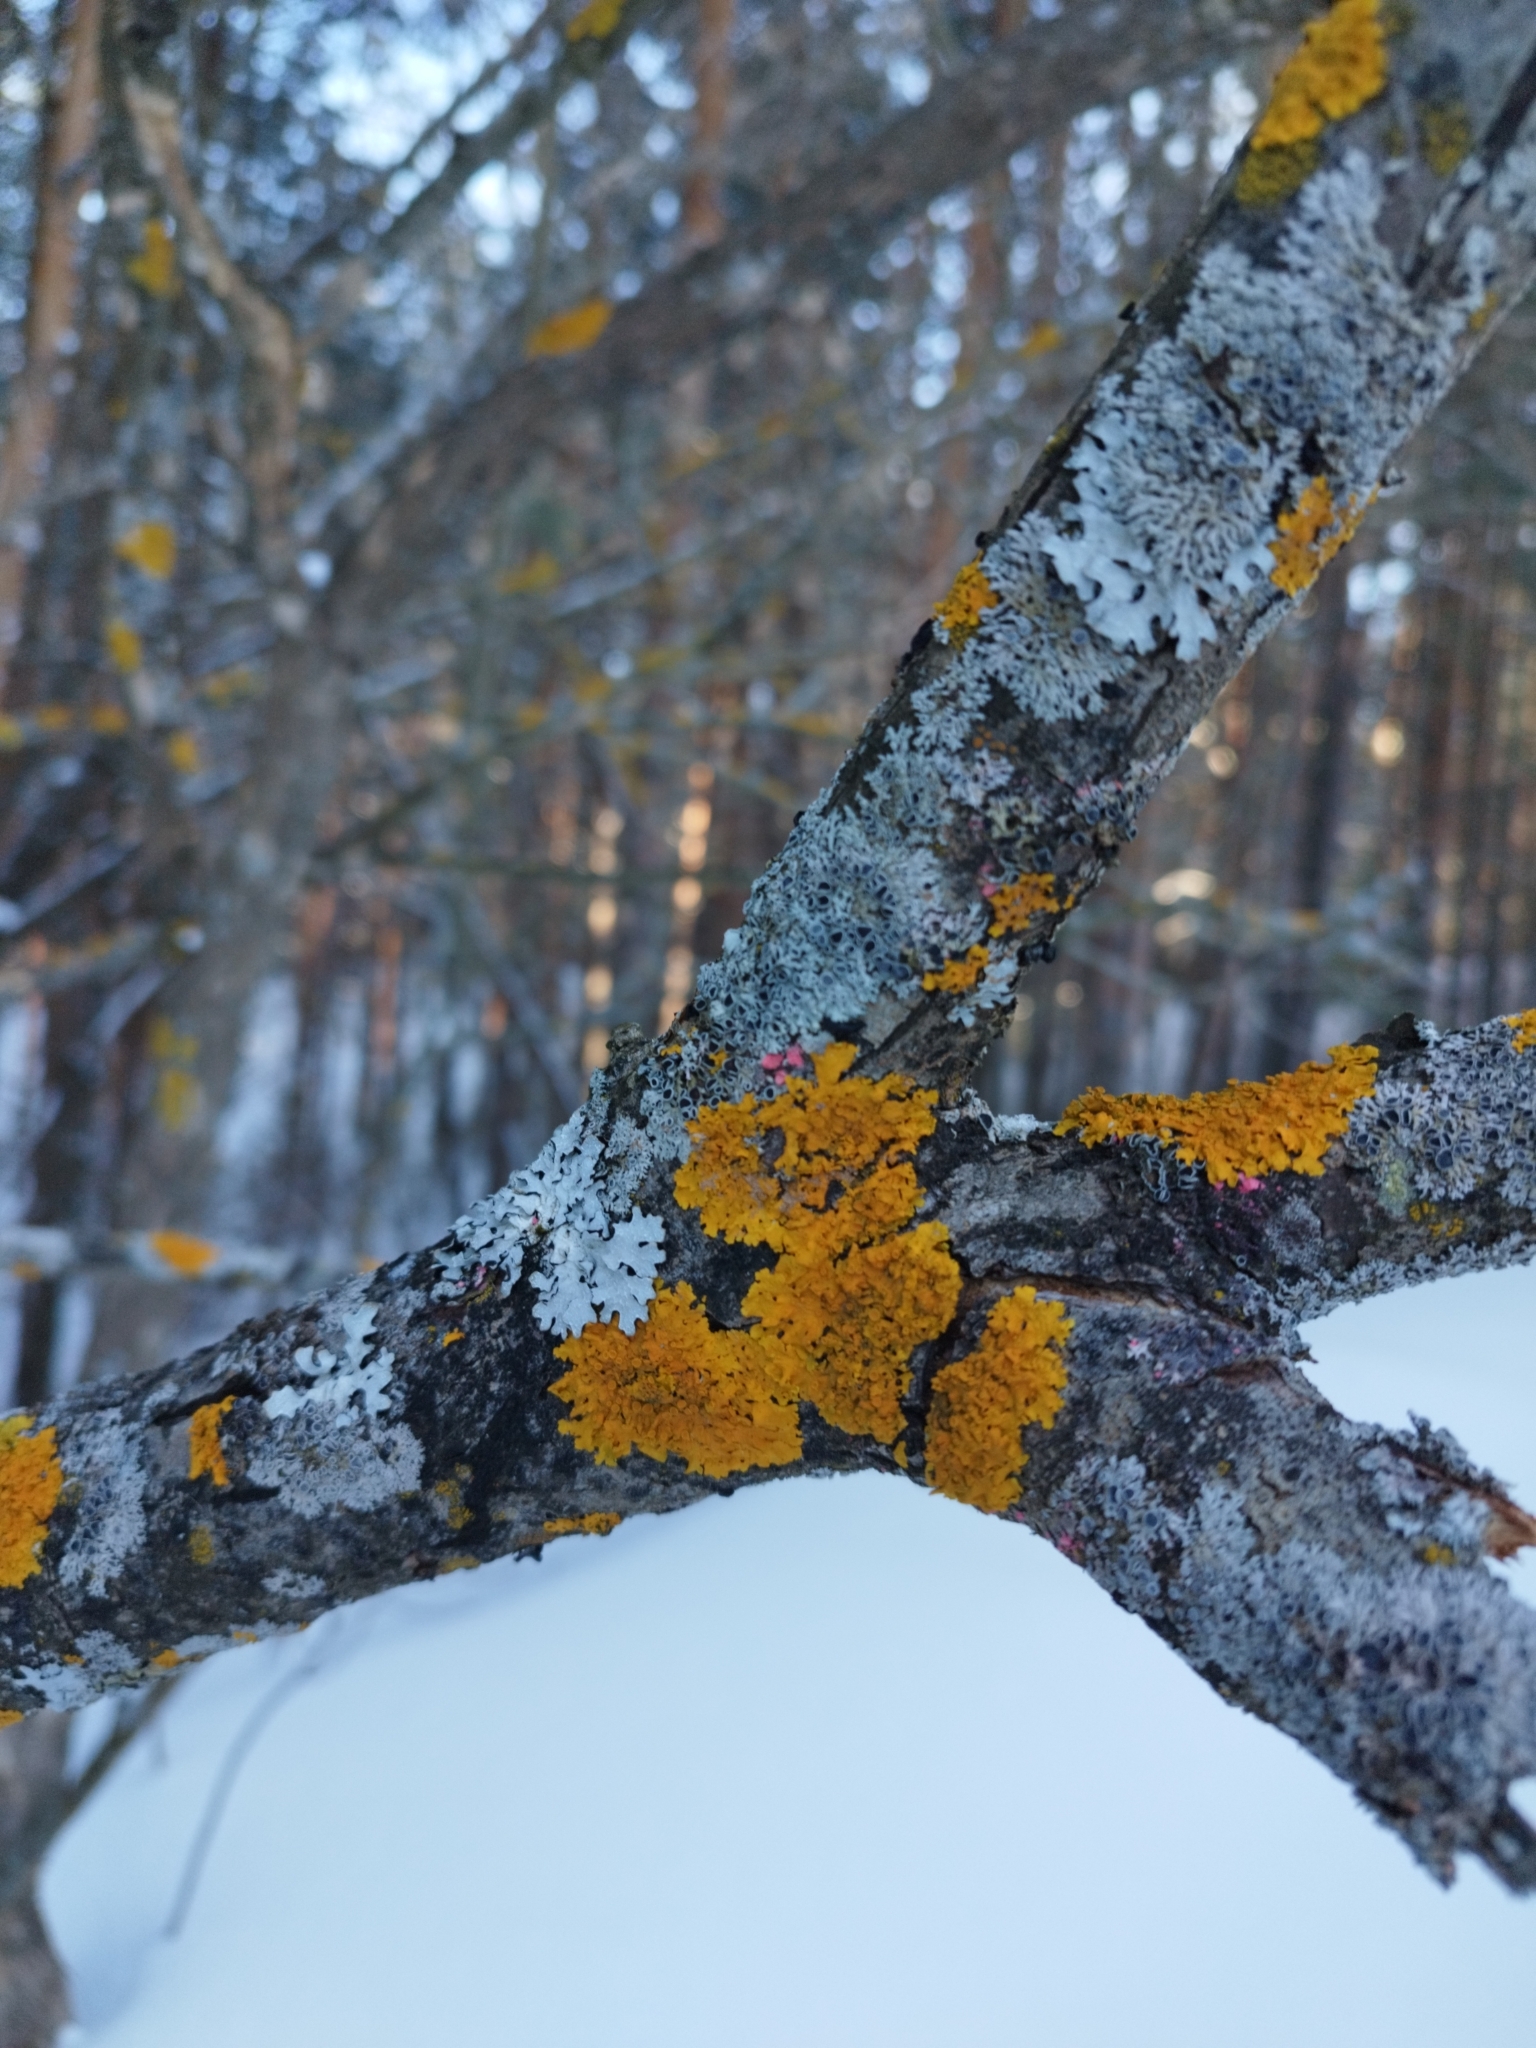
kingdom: Fungi
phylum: Ascomycota
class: Lecanoromycetes
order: Teloschistales
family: Teloschistaceae
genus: Xanthoria
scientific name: Xanthoria parietina
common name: Common orange lichen
